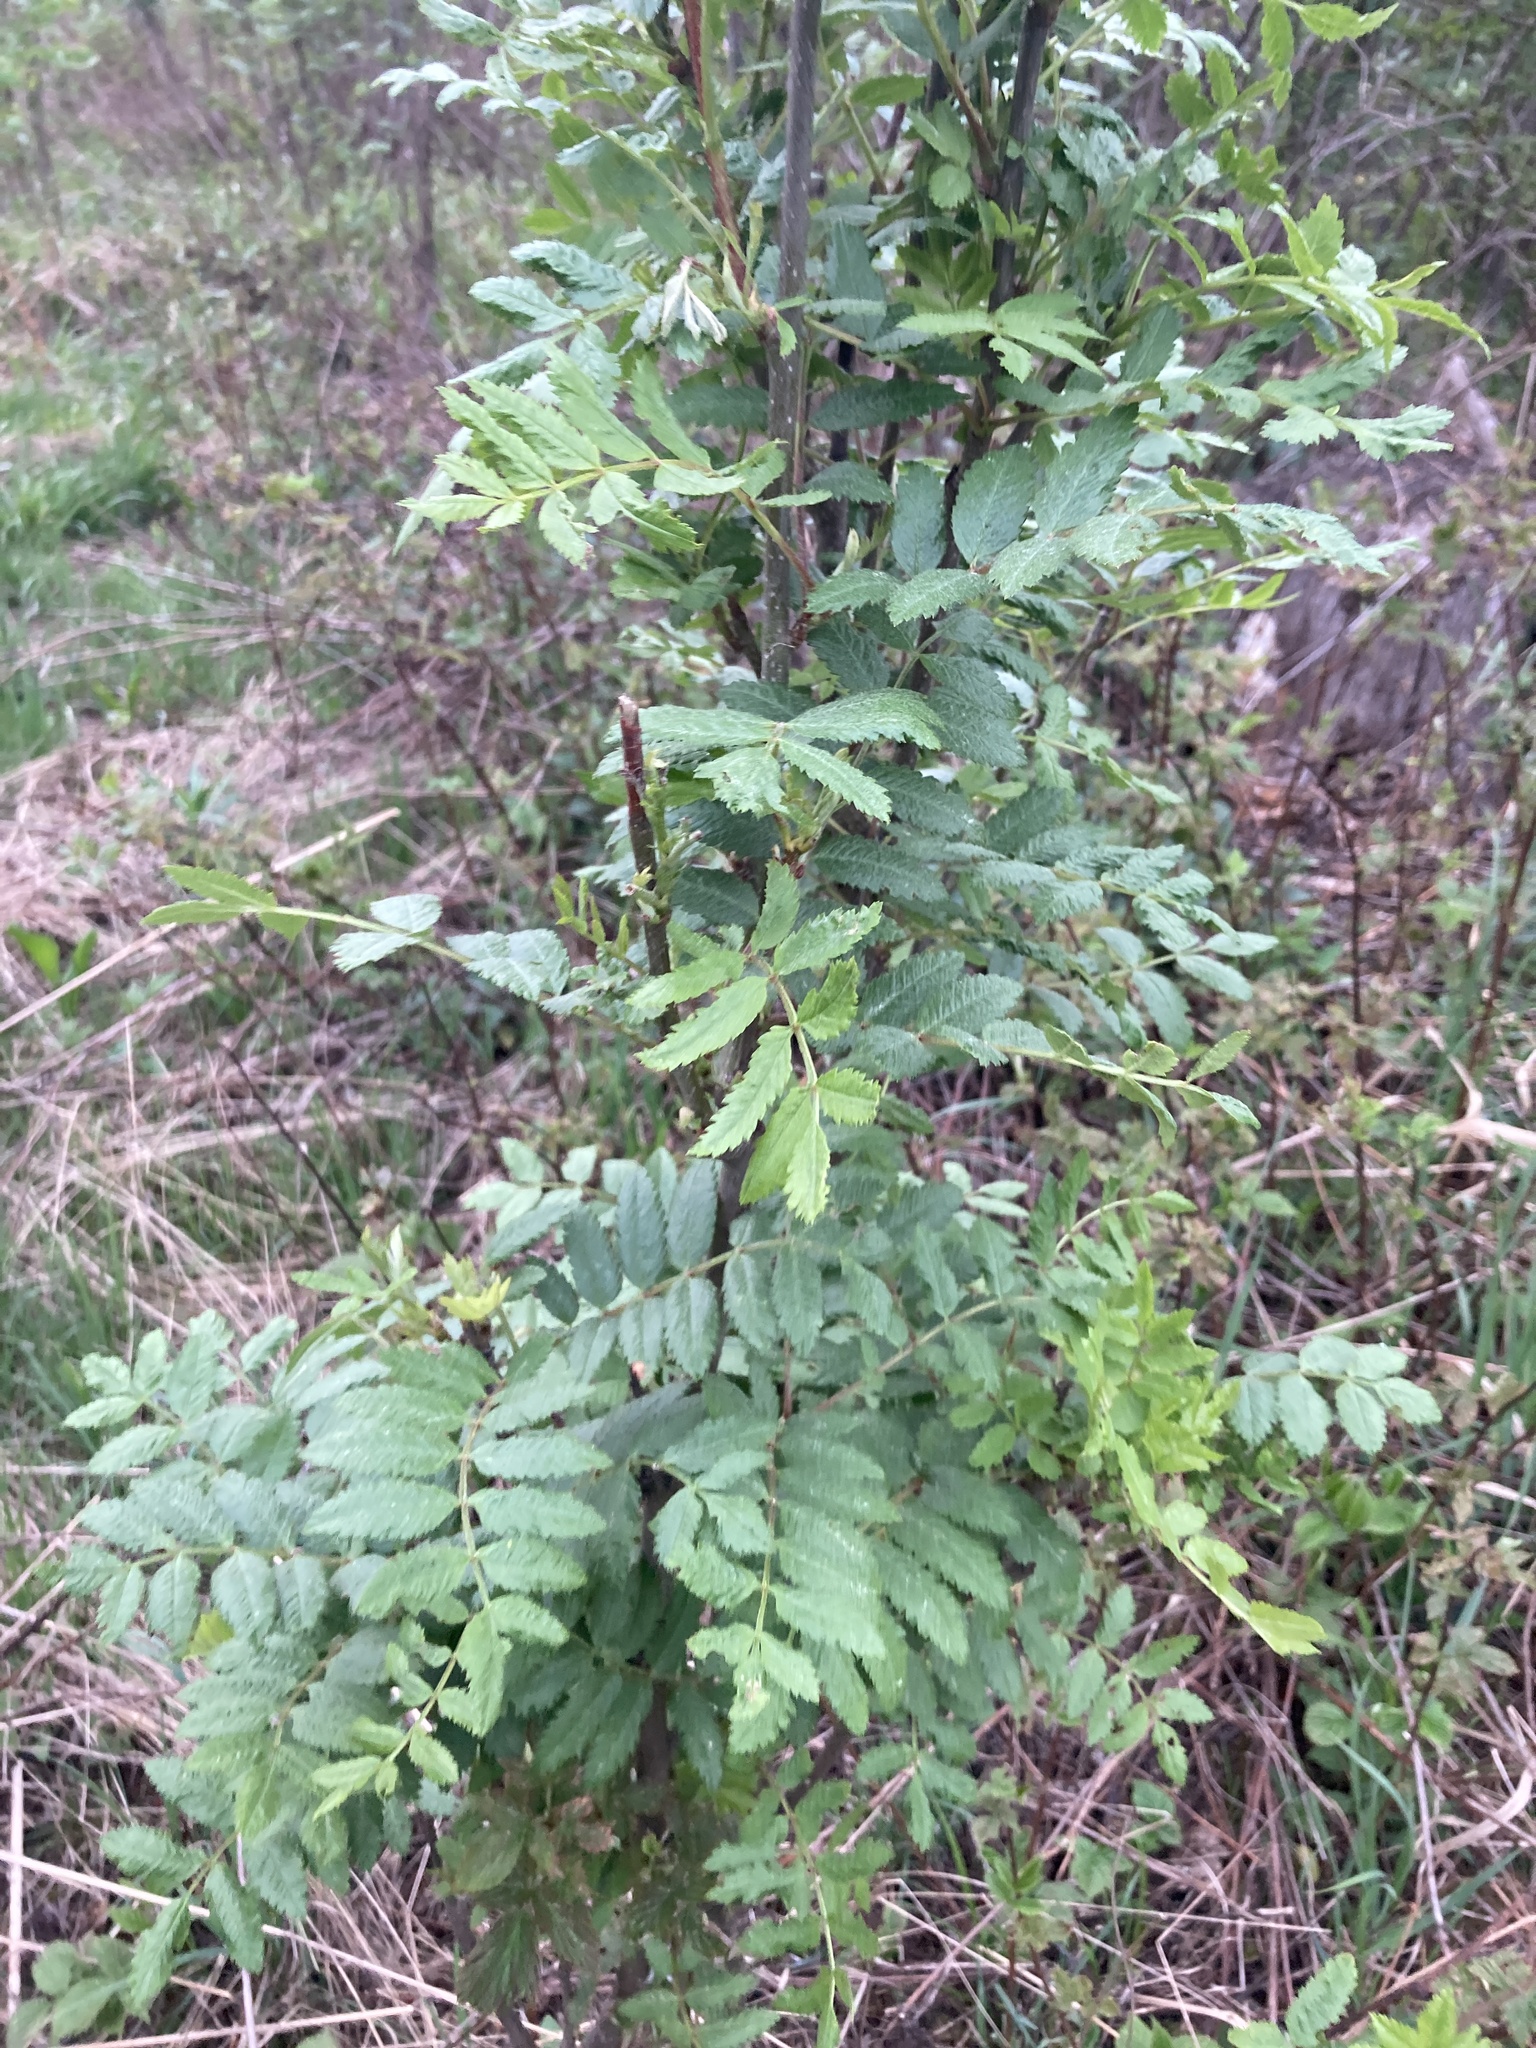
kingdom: Plantae
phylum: Tracheophyta
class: Magnoliopsida
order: Rosales
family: Rosaceae
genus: Sorbus
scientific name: Sorbus aucuparia
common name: Rowan
